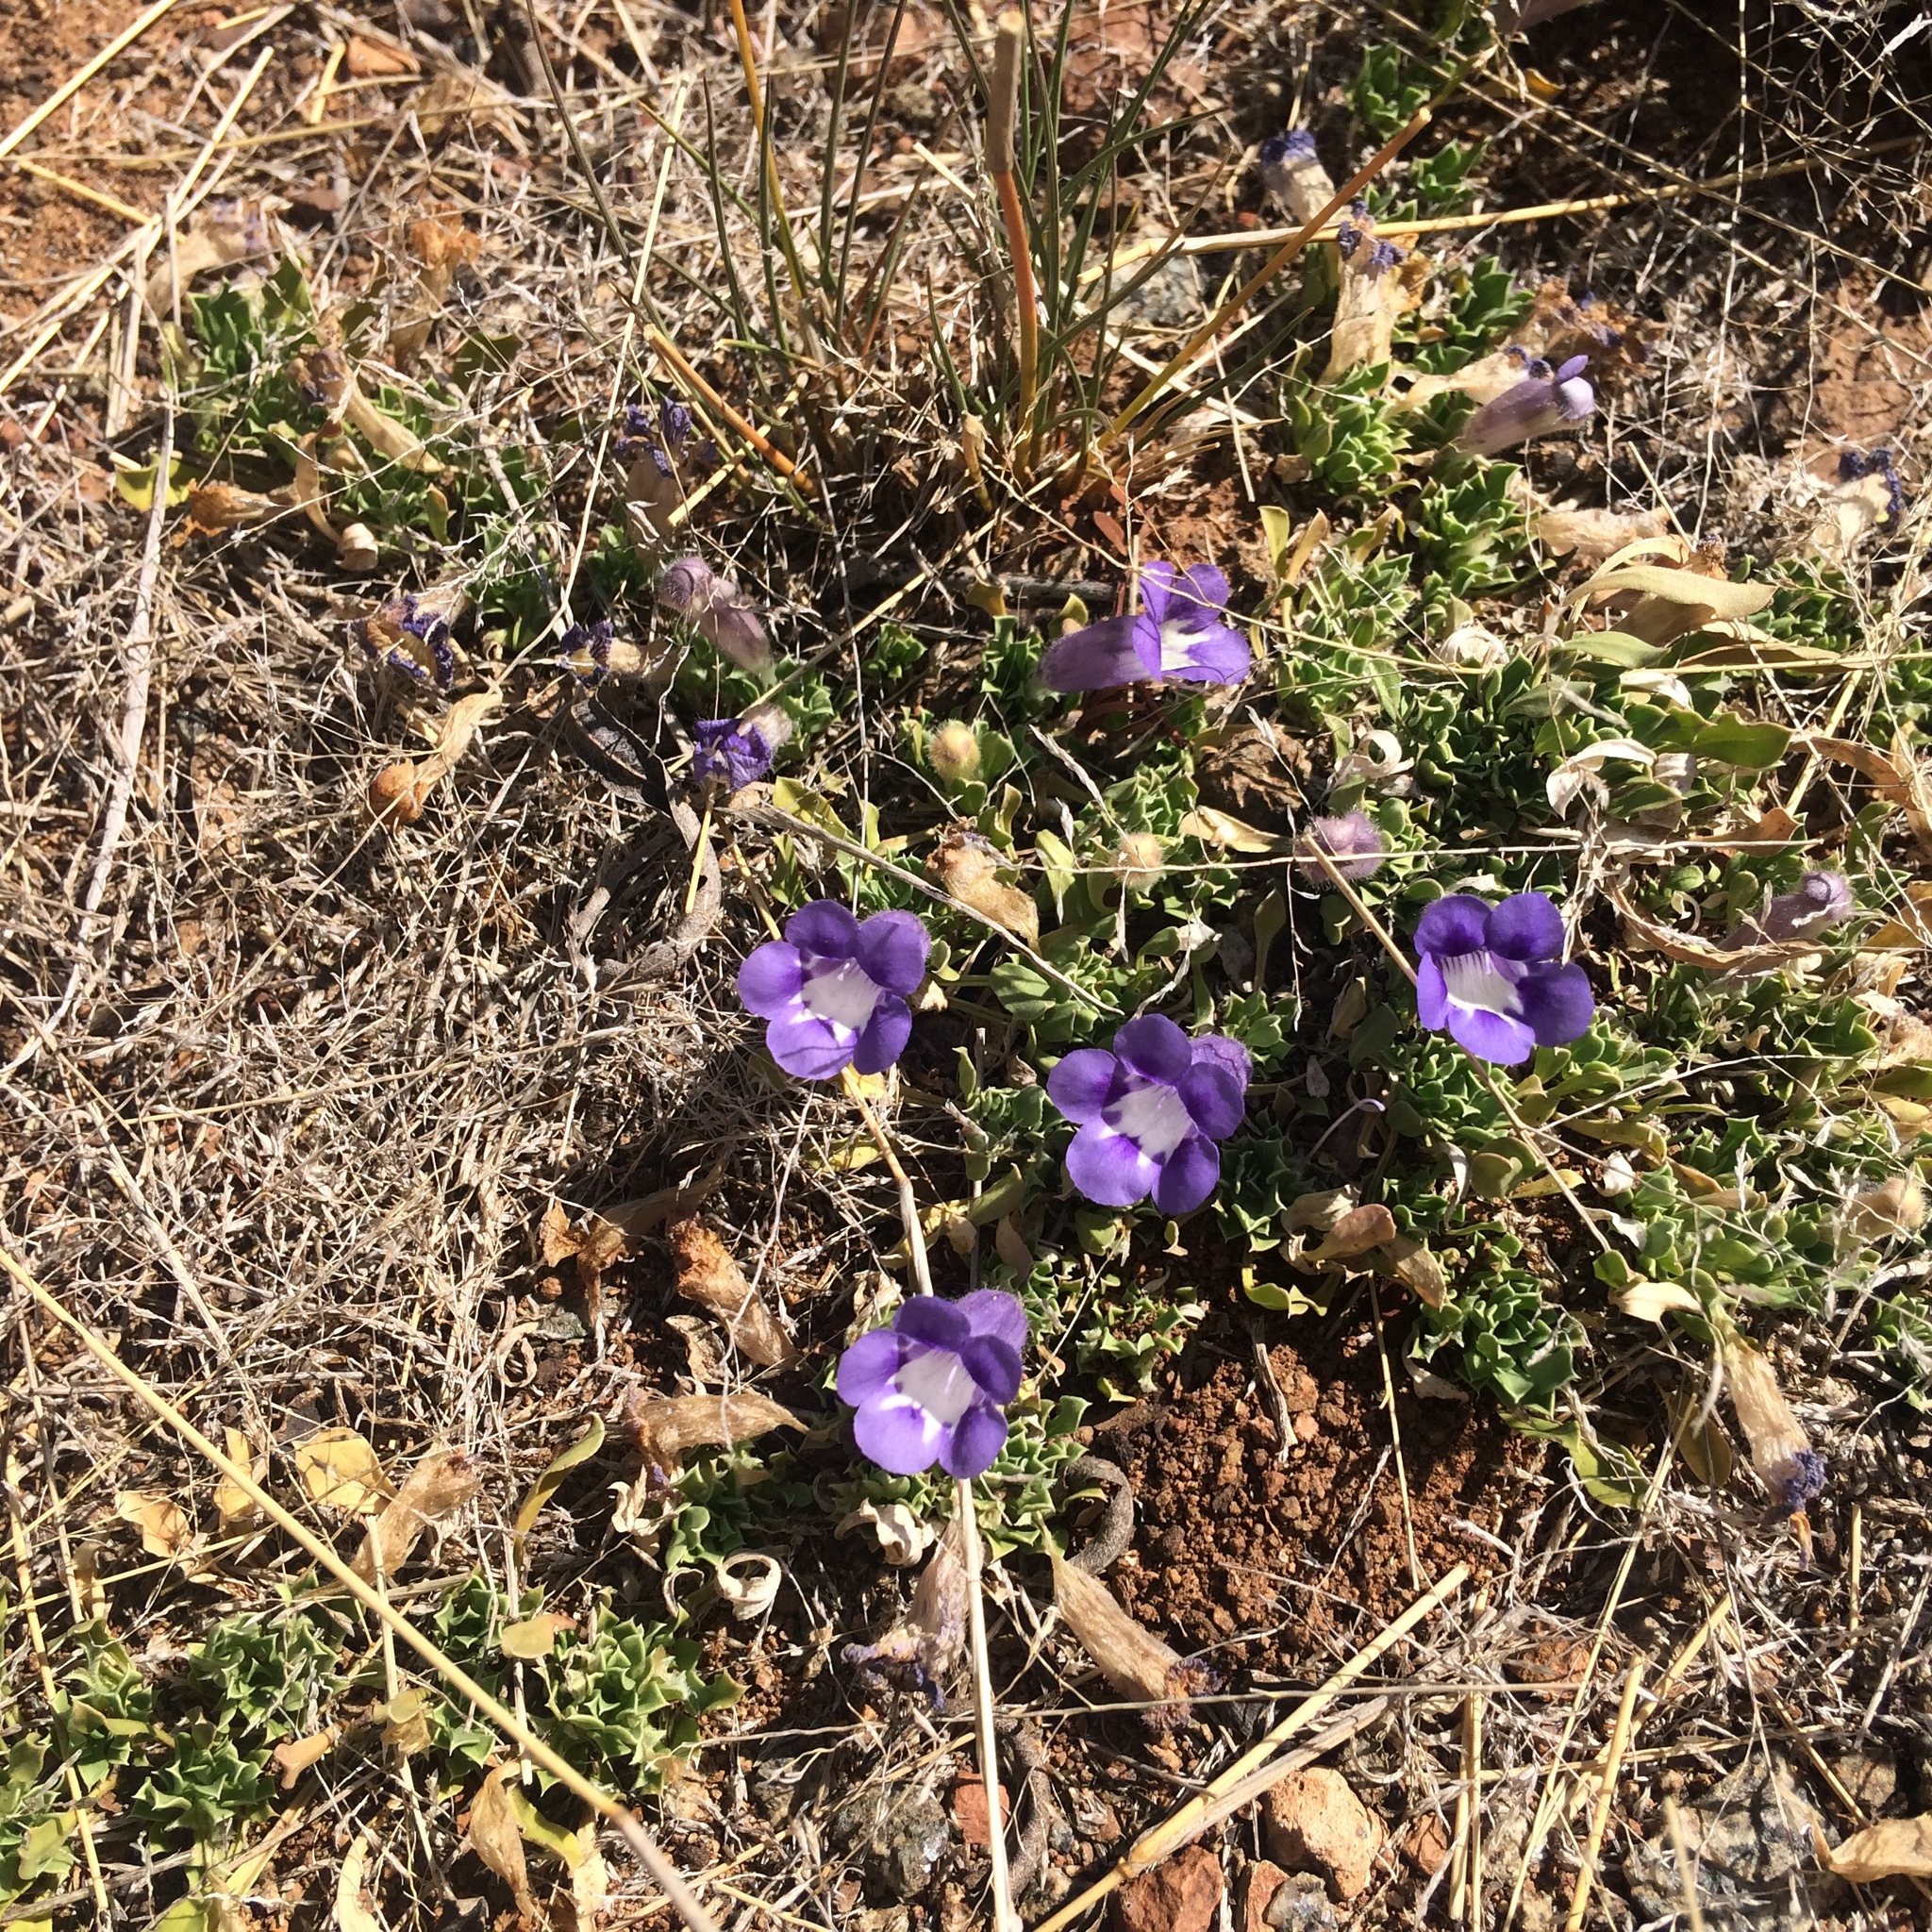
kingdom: Plantae
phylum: Tracheophyta
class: Magnoliopsida
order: Lamiales
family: Scrophulariaceae
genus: Aptosimum
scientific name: Aptosimum procumbens
